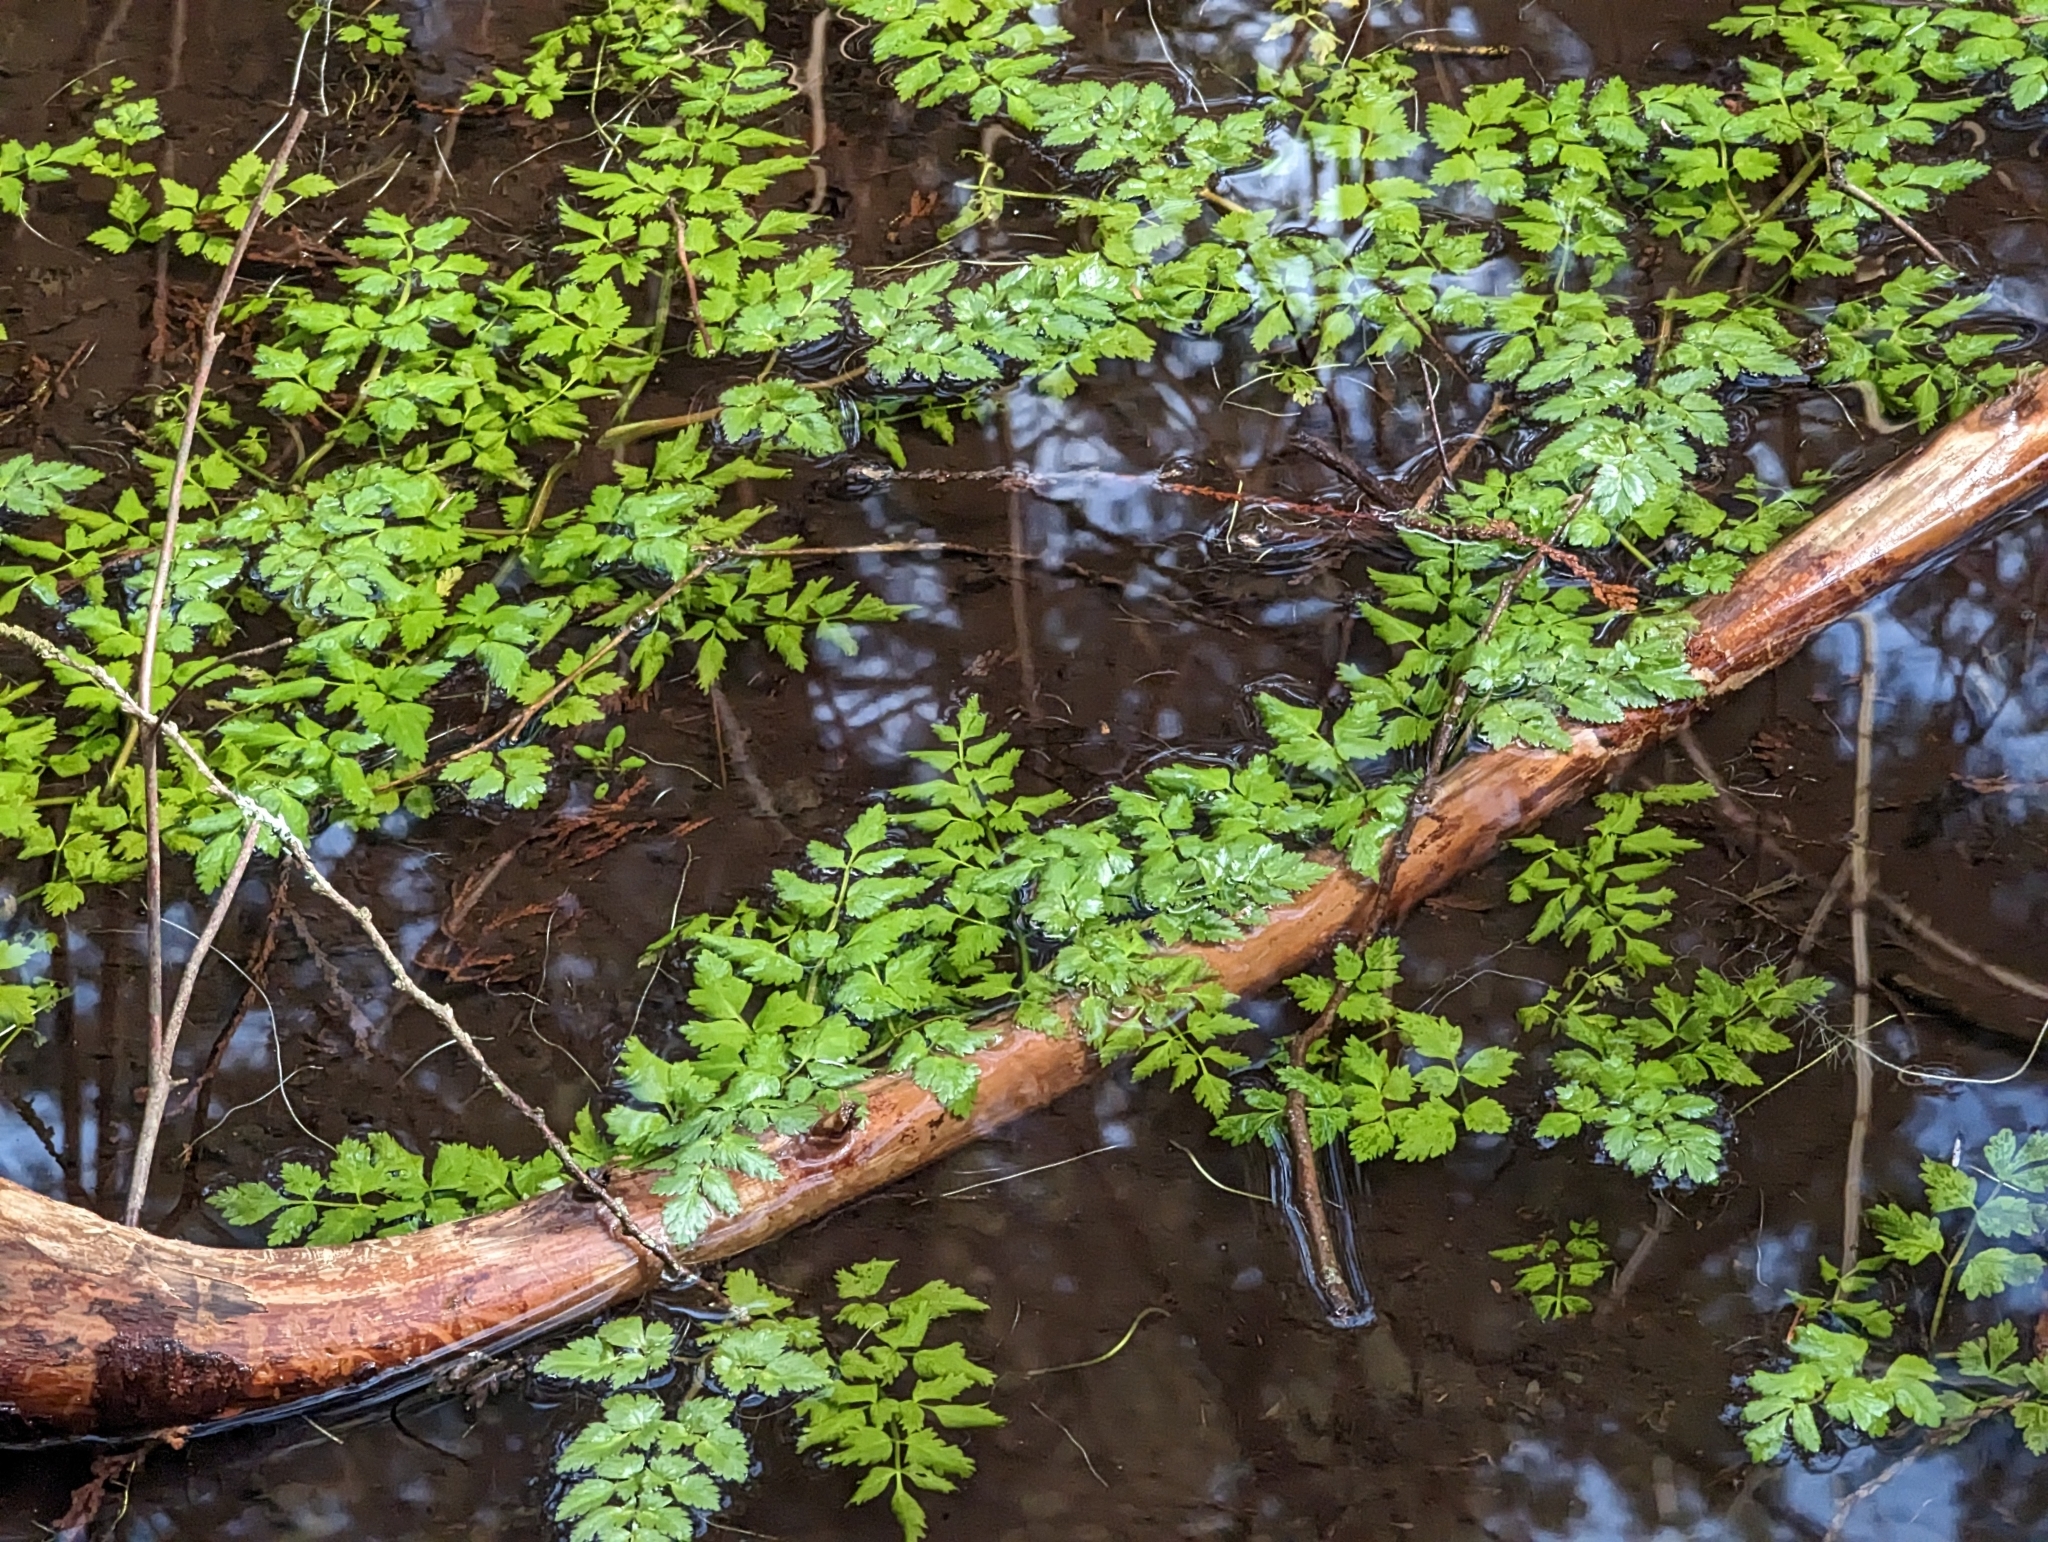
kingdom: Plantae
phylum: Tracheophyta
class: Magnoliopsida
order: Apiales
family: Apiaceae
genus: Oenanthe
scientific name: Oenanthe sarmentosa
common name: American water-parsley
